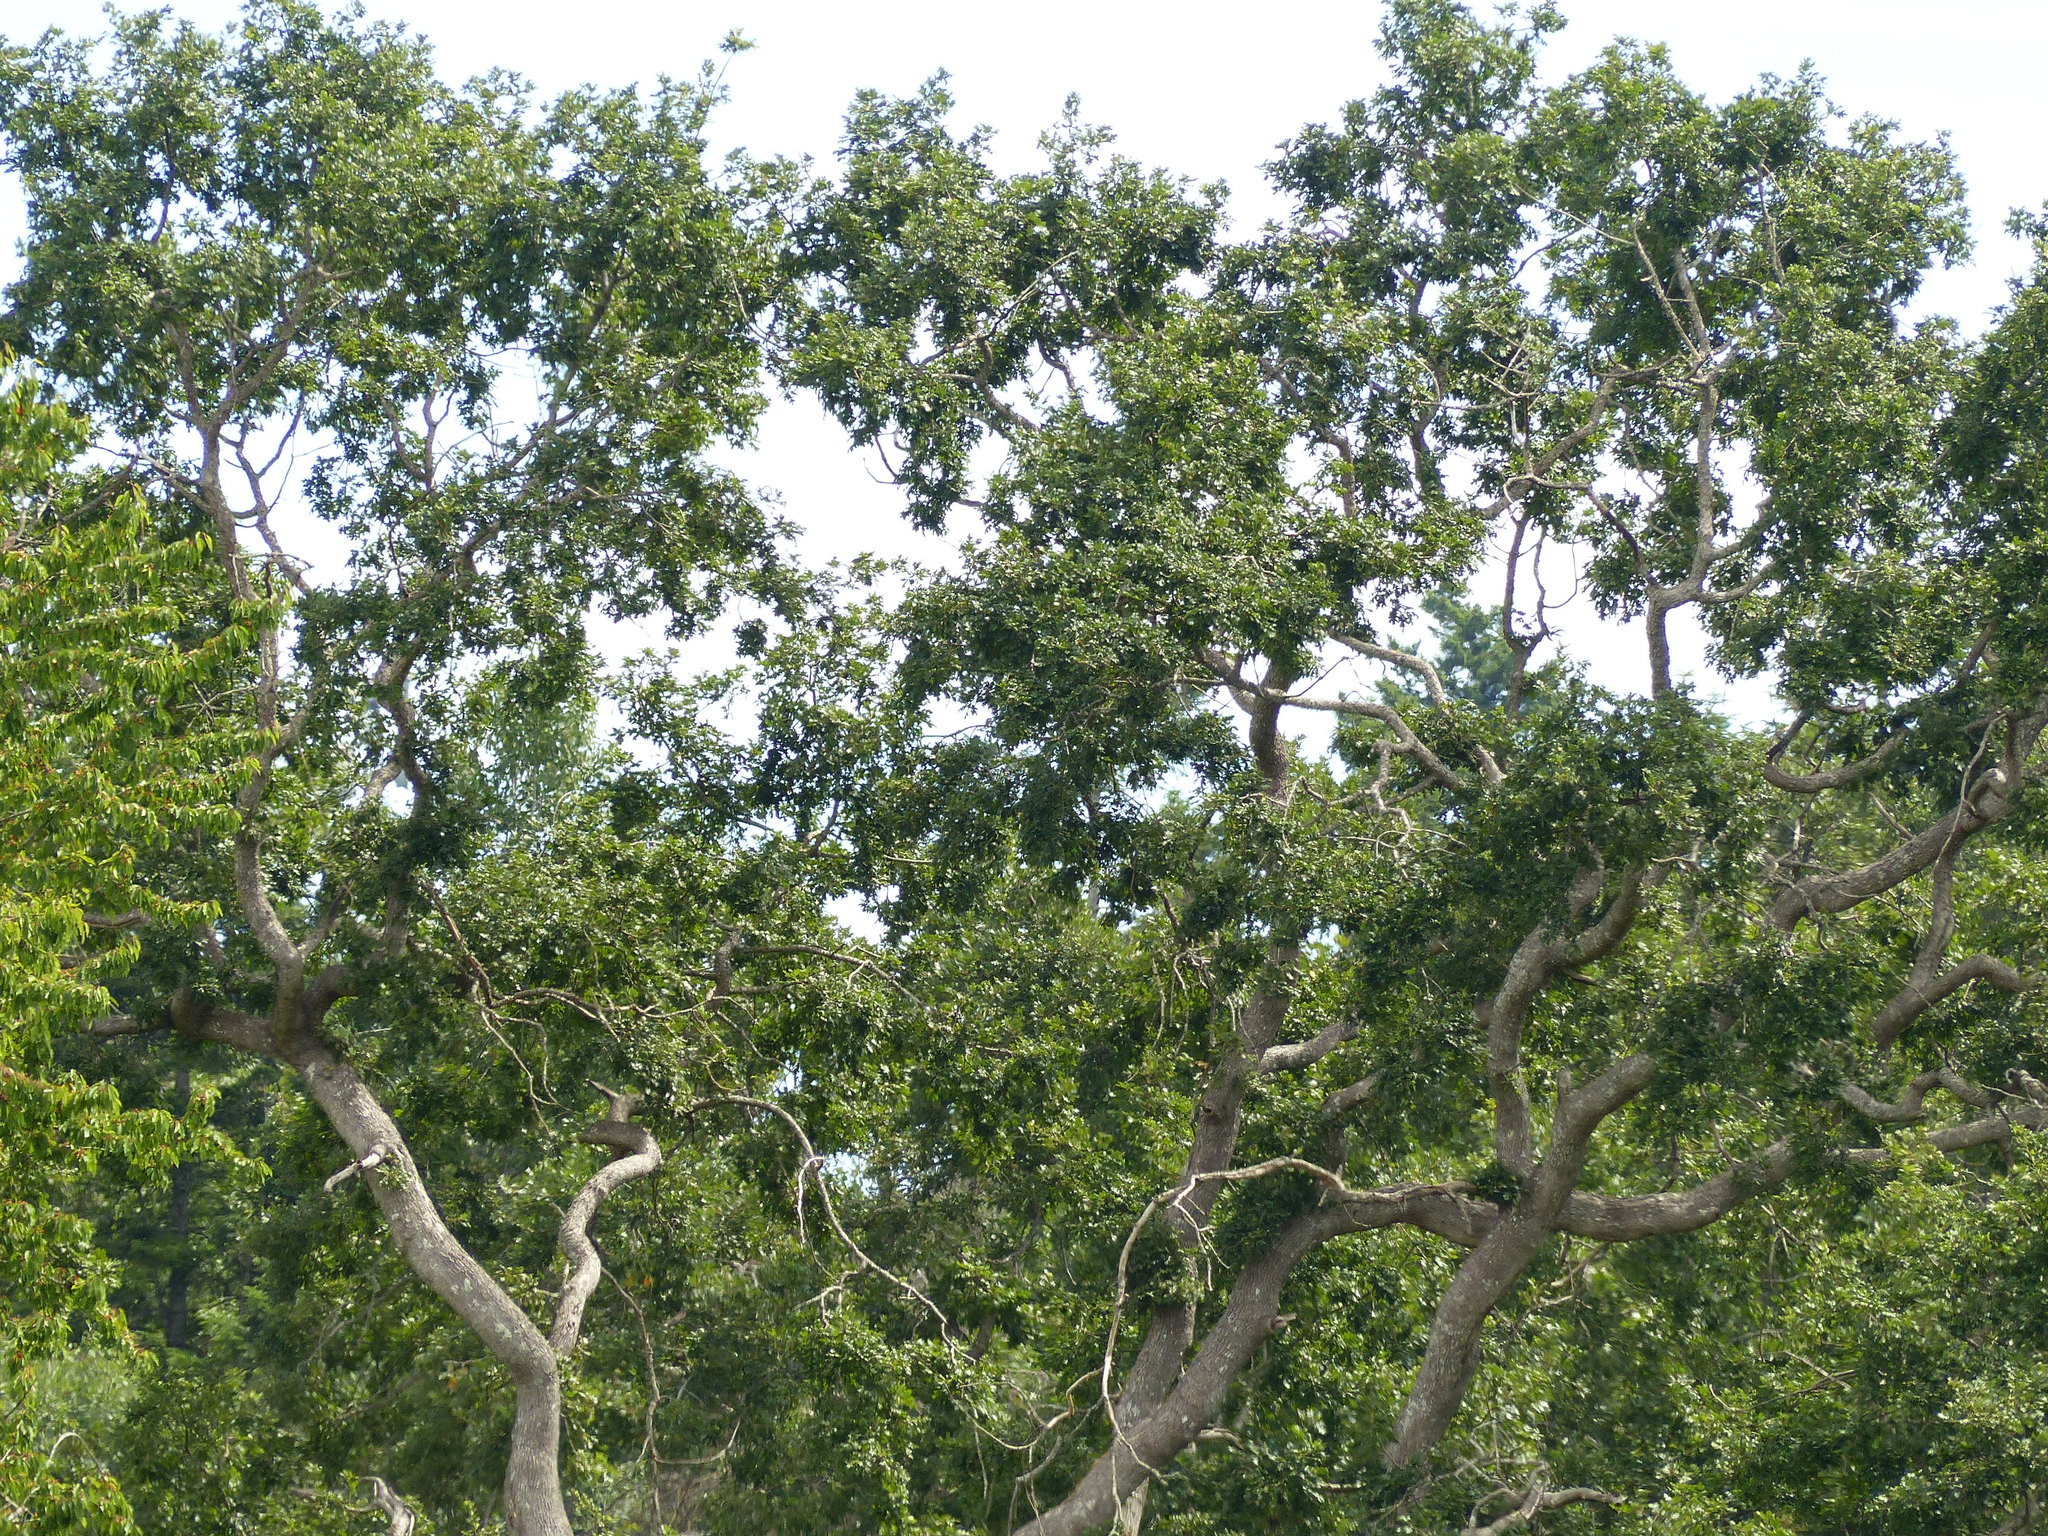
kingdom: Plantae
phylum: Tracheophyta
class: Magnoliopsida
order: Fagales
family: Fagaceae
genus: Quercus
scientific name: Quercus garryana
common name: Garry oak
